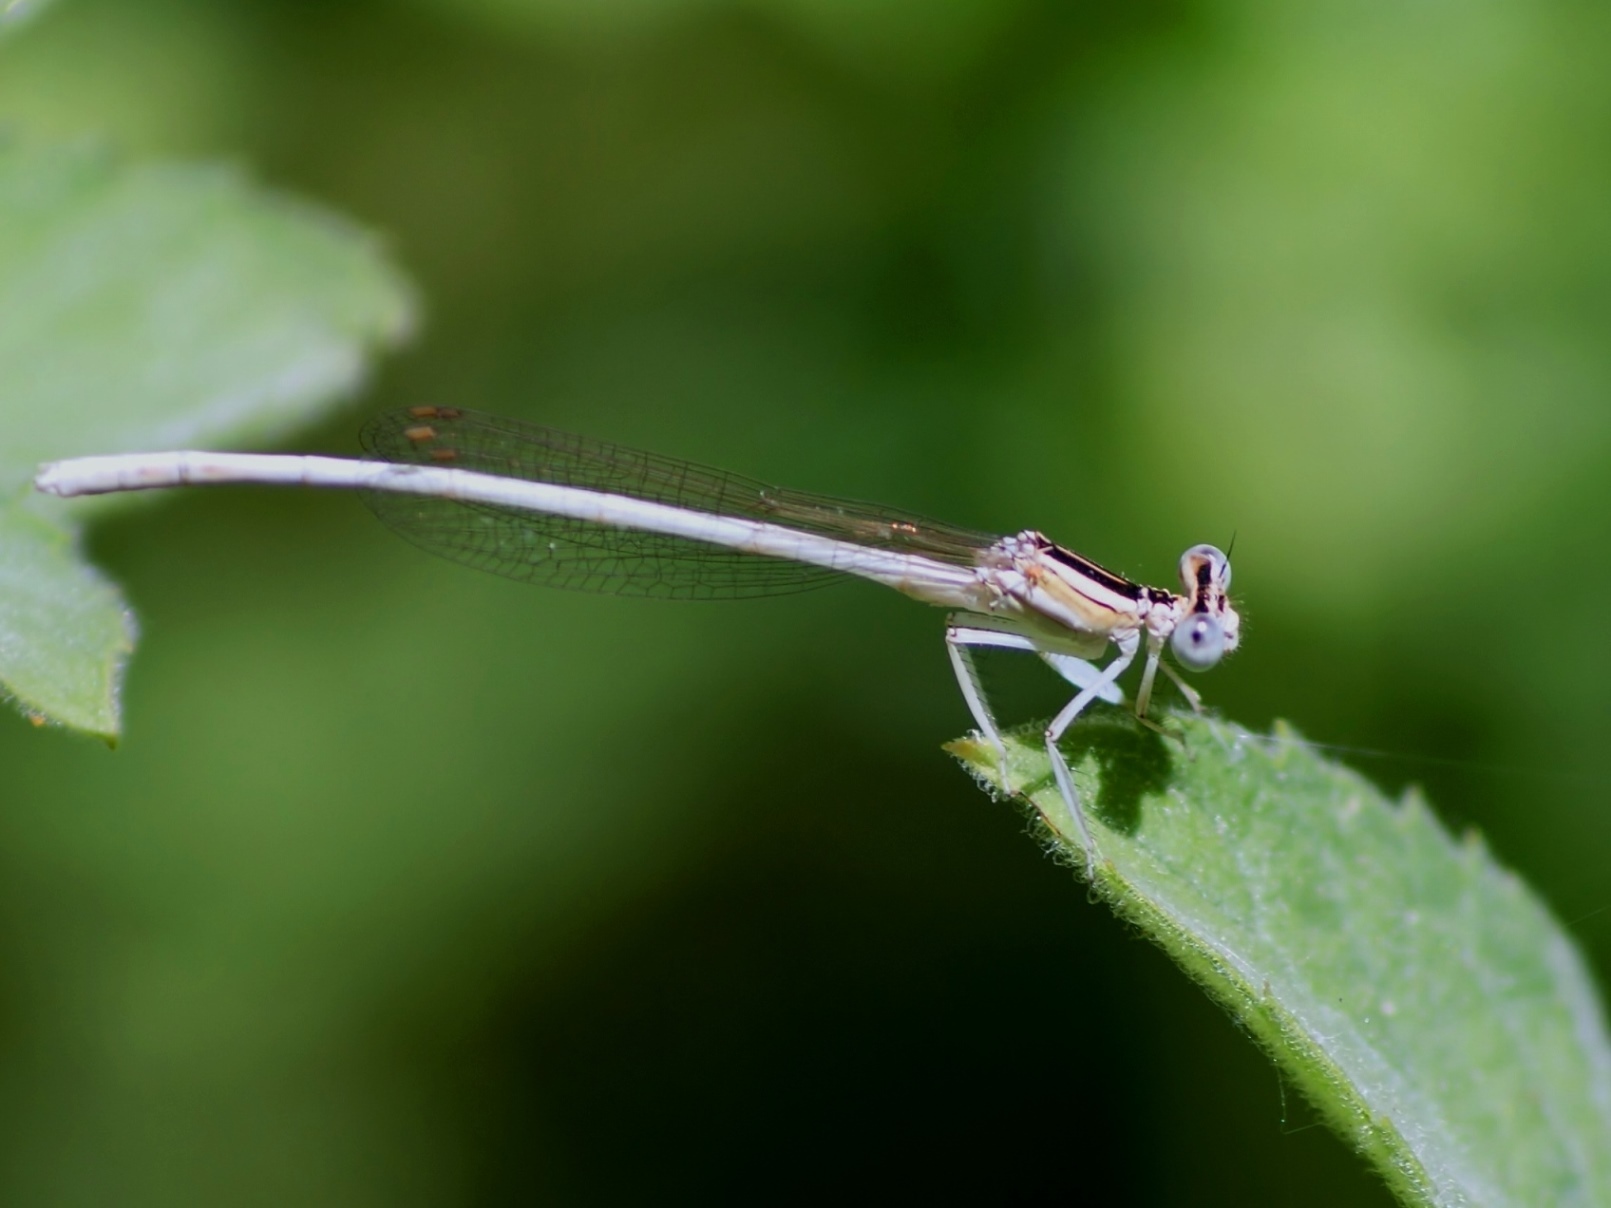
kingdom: Animalia
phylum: Arthropoda
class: Insecta
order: Odonata
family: Platycnemididae
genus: Platycnemis
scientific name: Platycnemis dealbata
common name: Ivory featherleg
